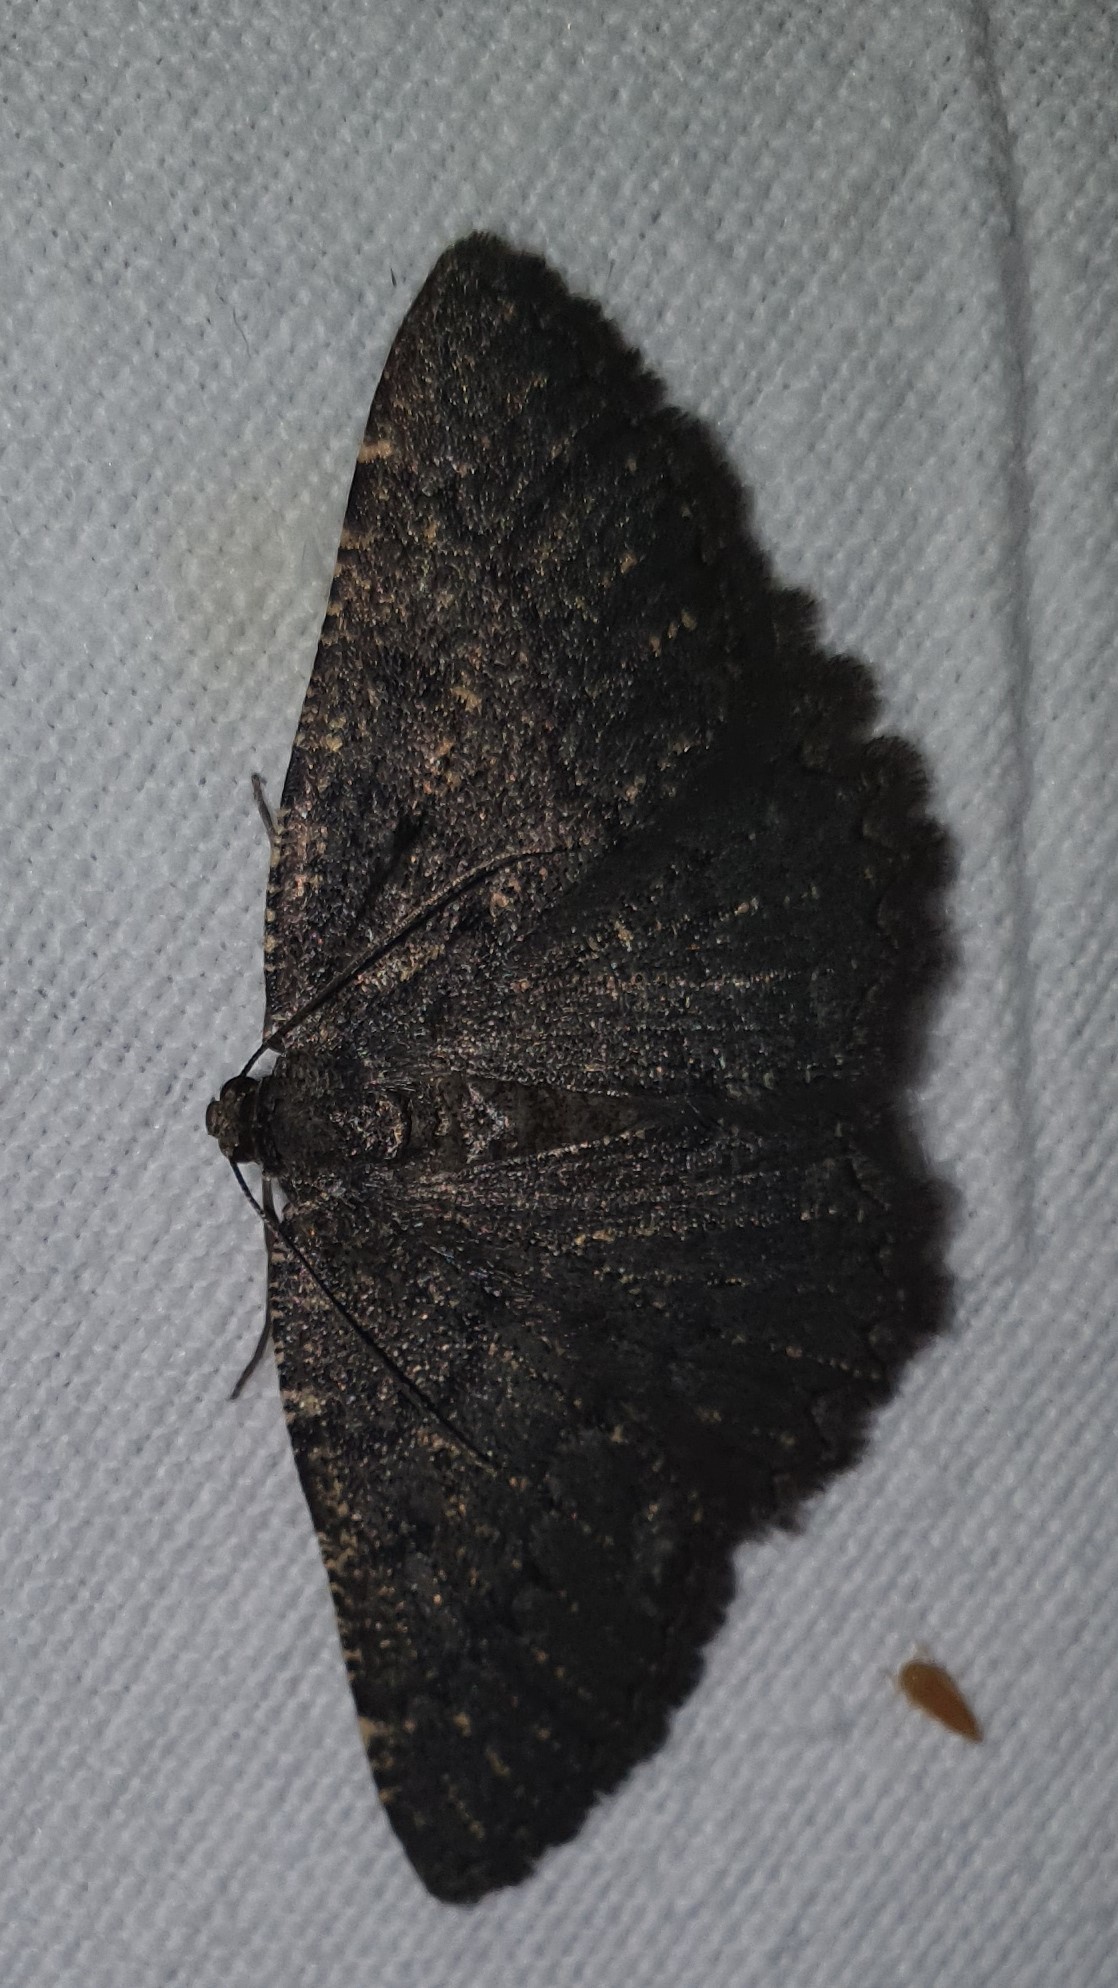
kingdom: Animalia
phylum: Arthropoda
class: Insecta
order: Lepidoptera
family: Geometridae
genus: Selidosema
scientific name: Selidosema taeniolaria
